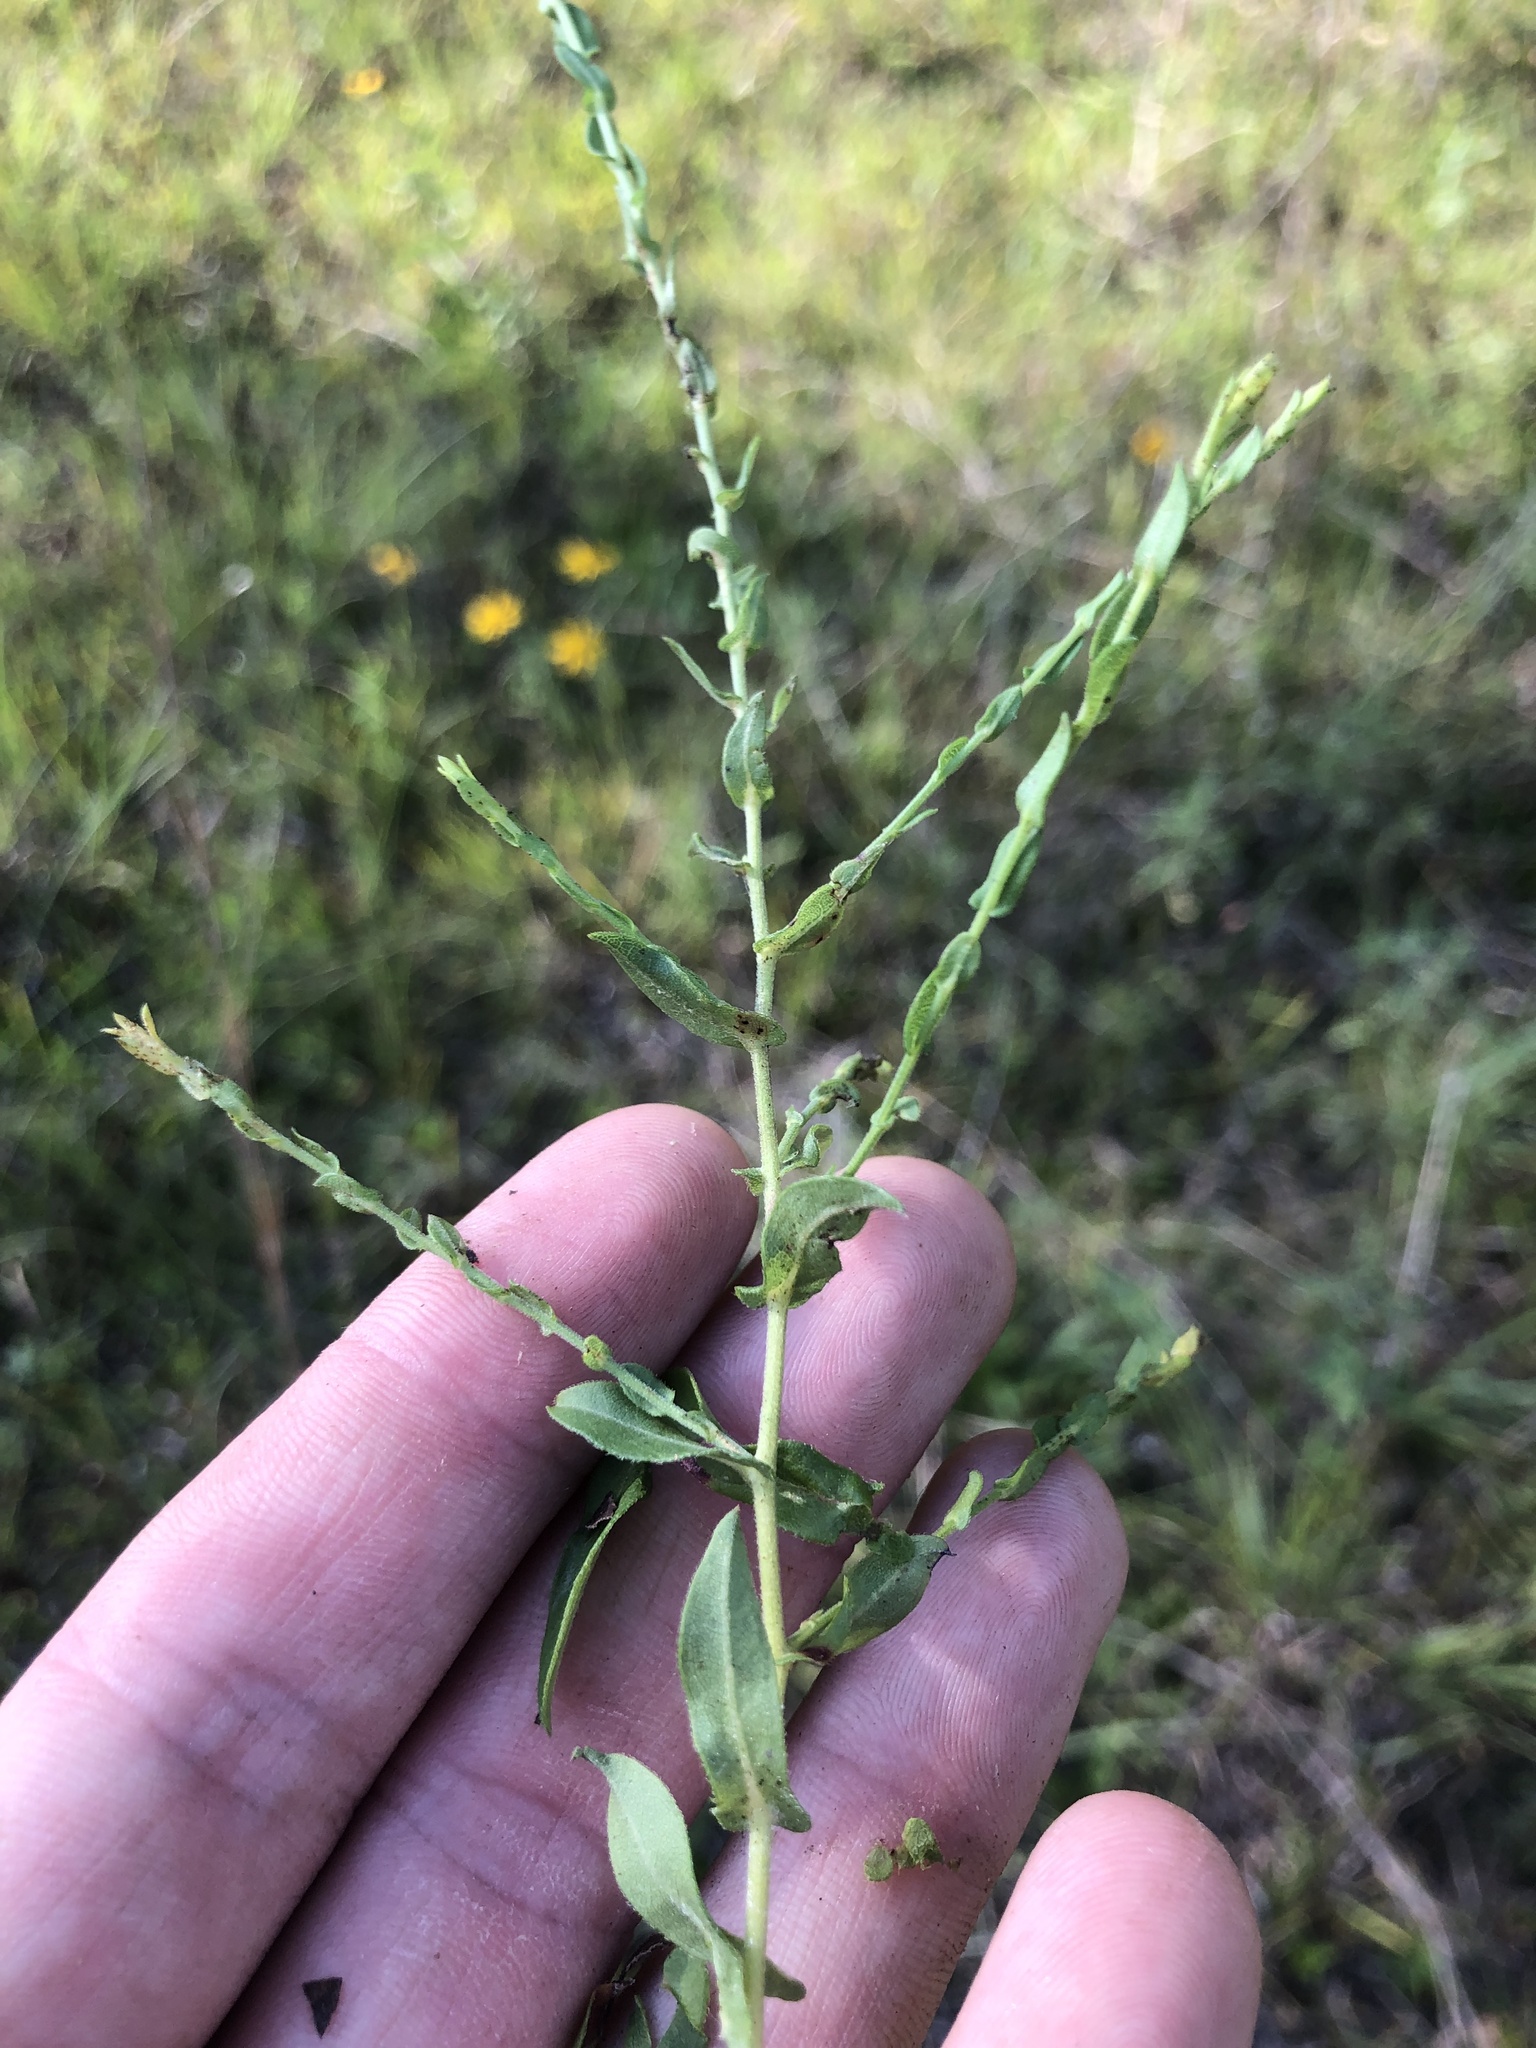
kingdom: Plantae
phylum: Tracheophyta
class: Magnoliopsida
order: Asterales
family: Asteraceae
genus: Symphyotrichum
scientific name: Symphyotrichum patens
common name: Late purple aster
